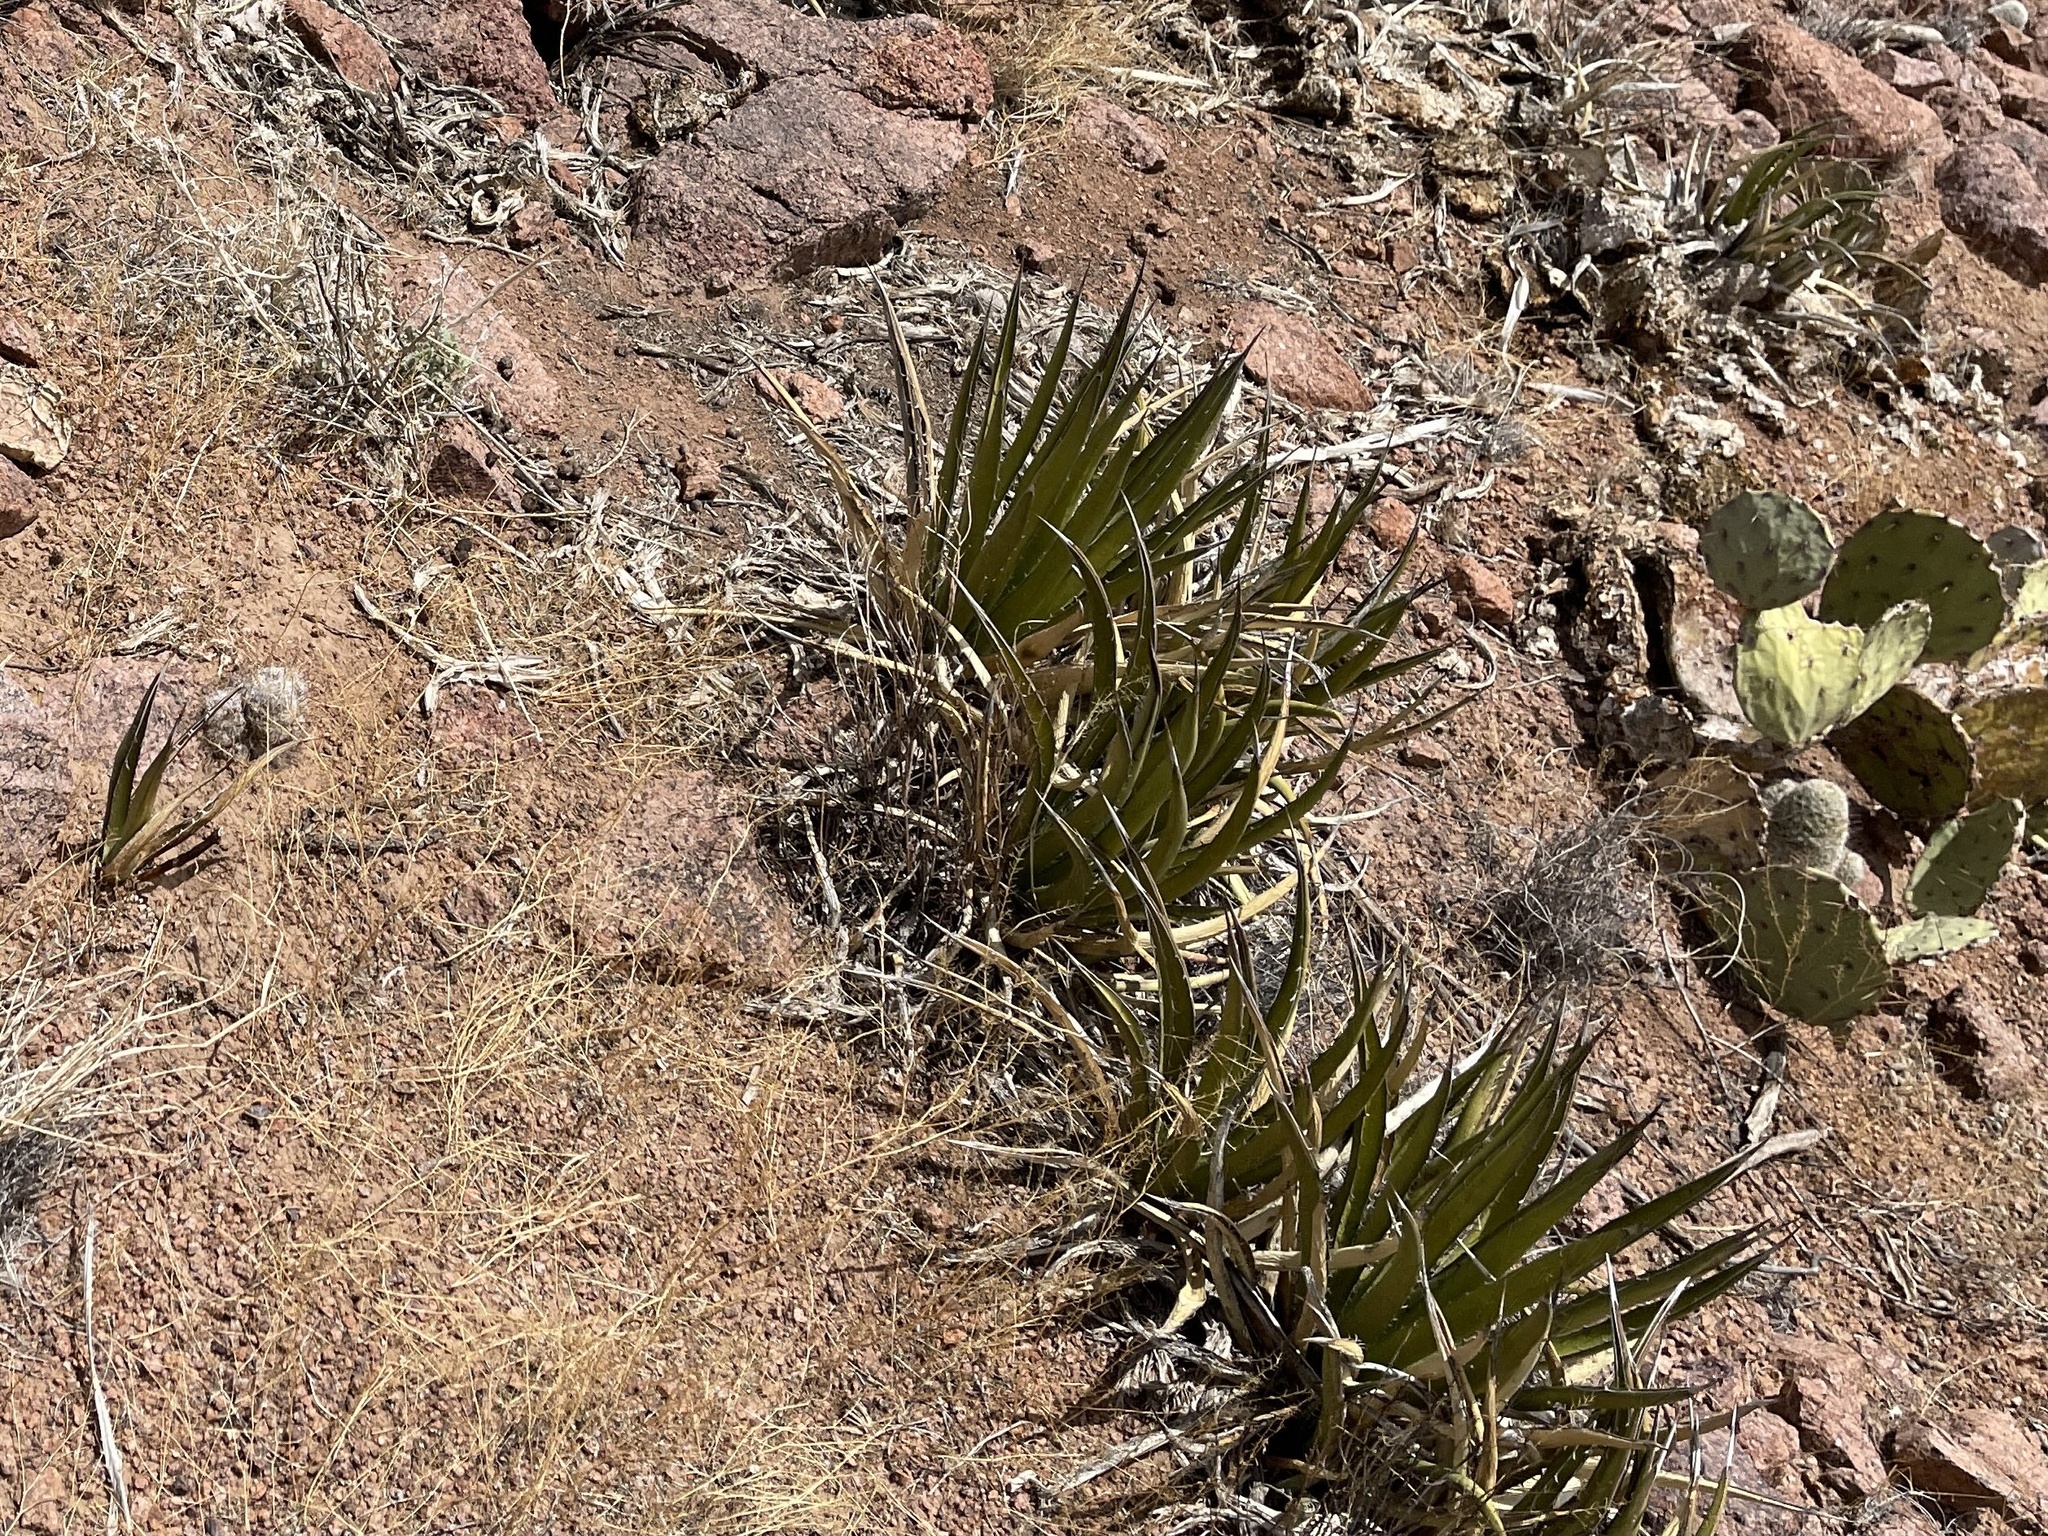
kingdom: Plantae
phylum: Tracheophyta
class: Liliopsida
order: Asparagales
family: Asparagaceae
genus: Agave
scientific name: Agave lechuguilla
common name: Lecheguilla agave
